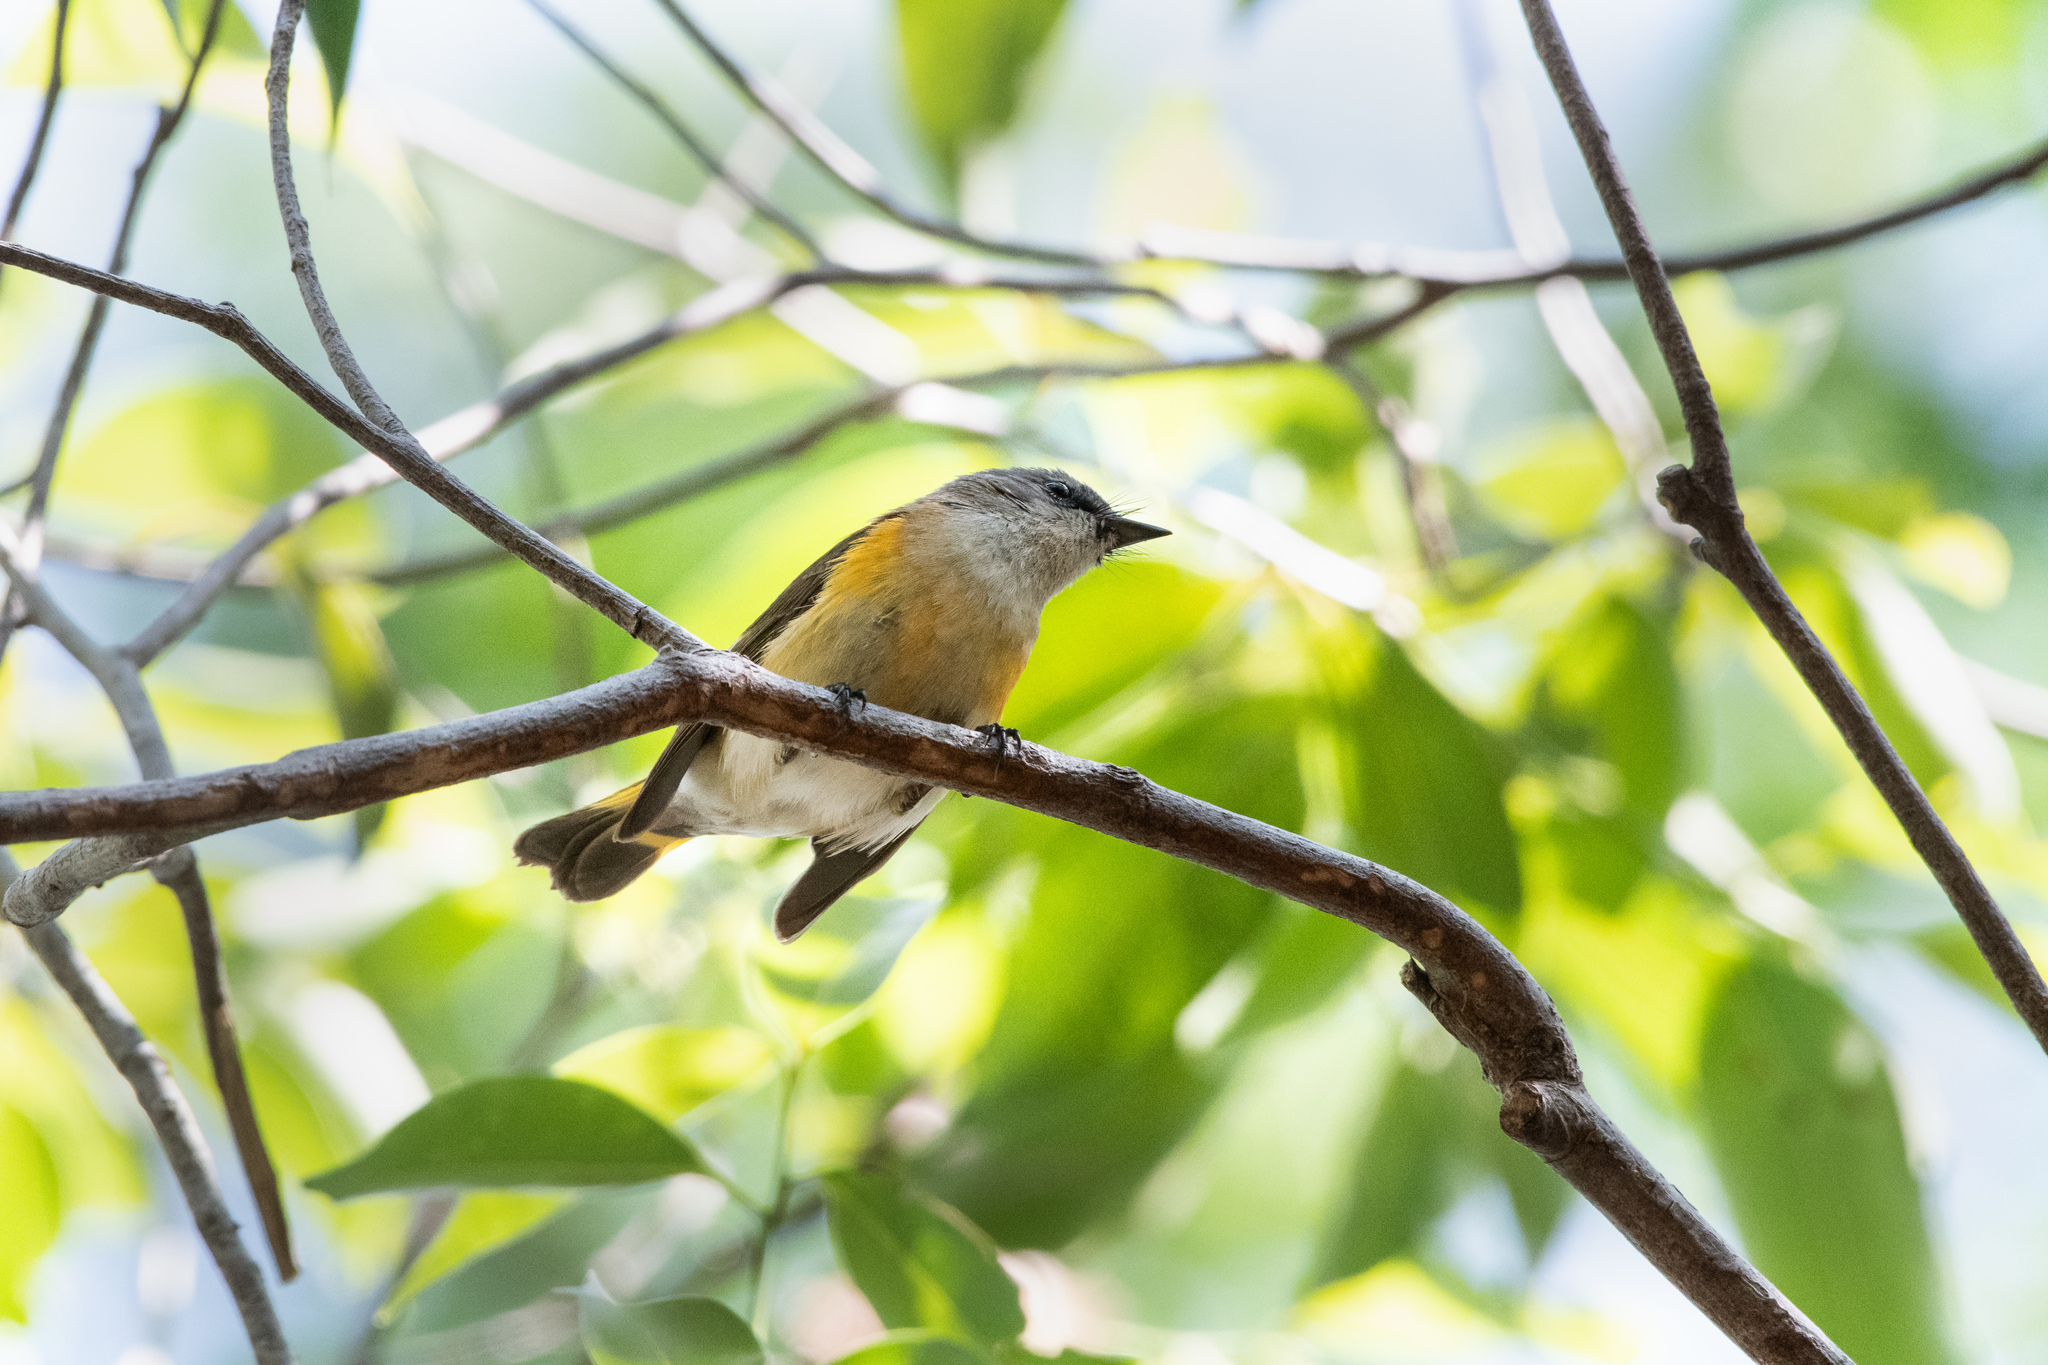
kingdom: Animalia
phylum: Chordata
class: Aves
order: Passeriformes
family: Parulidae
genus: Setophaga
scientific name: Setophaga ruticilla
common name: American redstart
